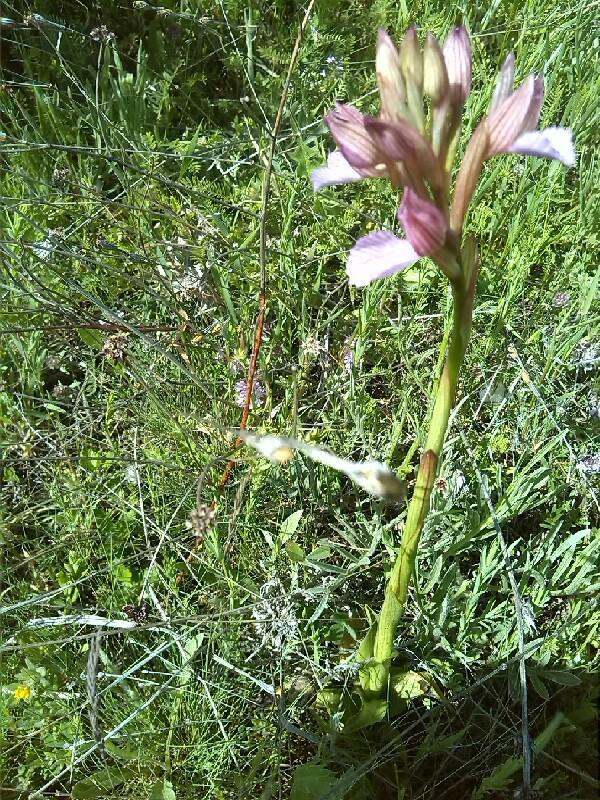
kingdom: Plantae
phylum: Tracheophyta
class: Liliopsida
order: Asparagales
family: Orchidaceae
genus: Anacamptis
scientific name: Anacamptis papilionacea
